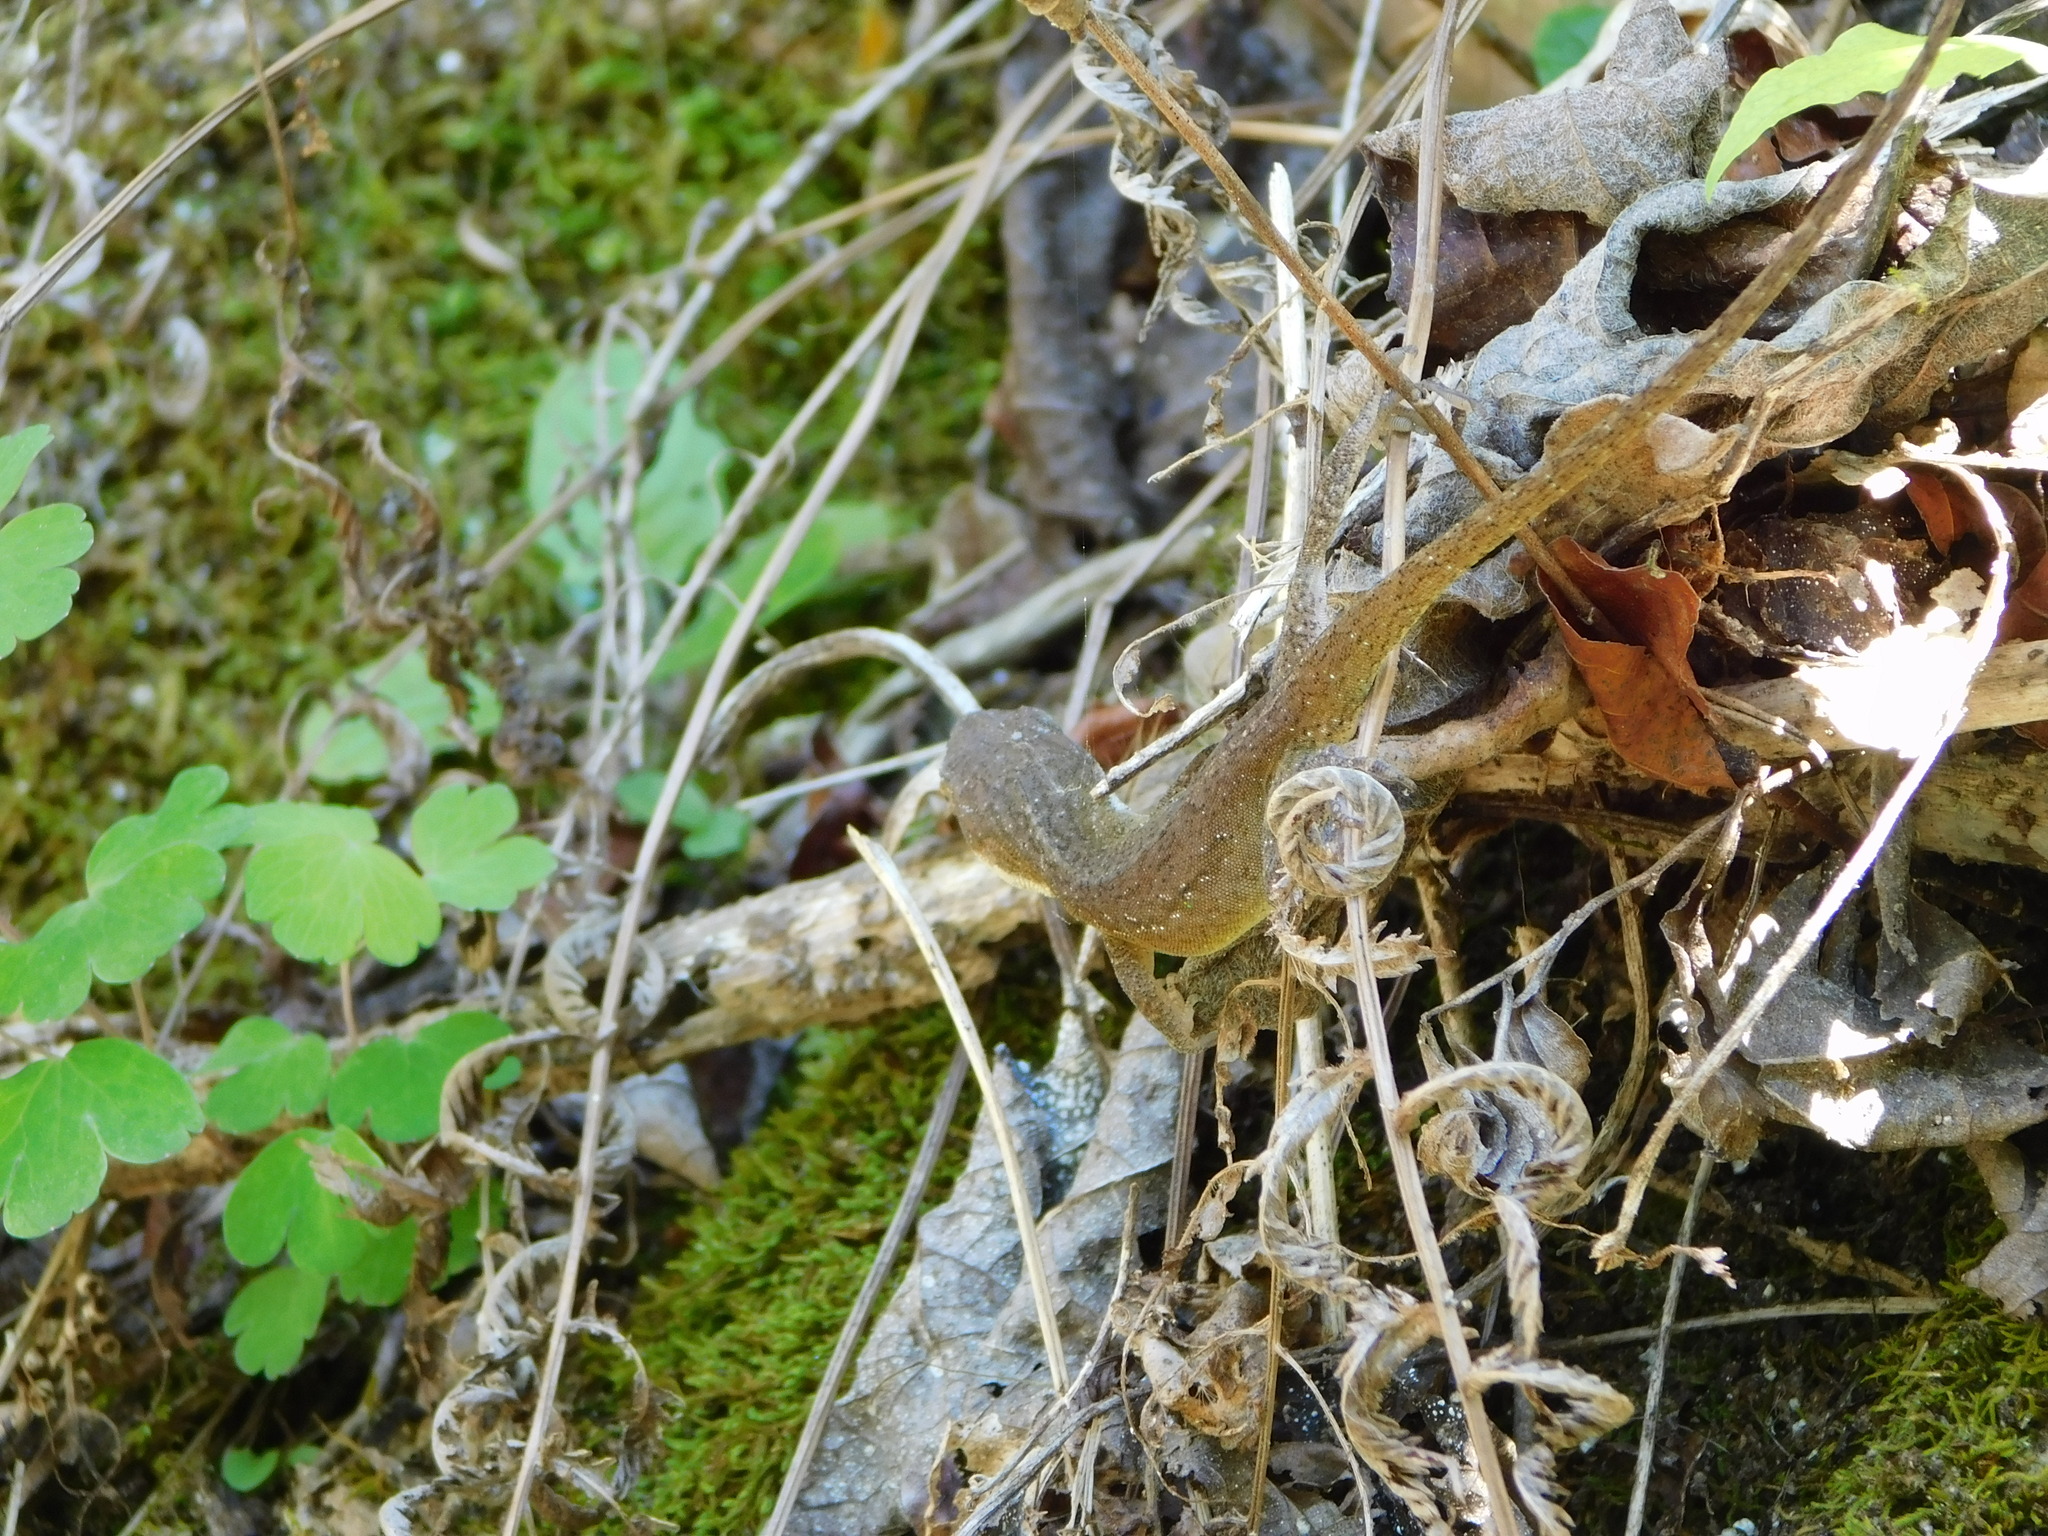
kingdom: Animalia
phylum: Chordata
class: Squamata
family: Dactyloidae
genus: Anolis
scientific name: Anolis carolinensis
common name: Green anole
